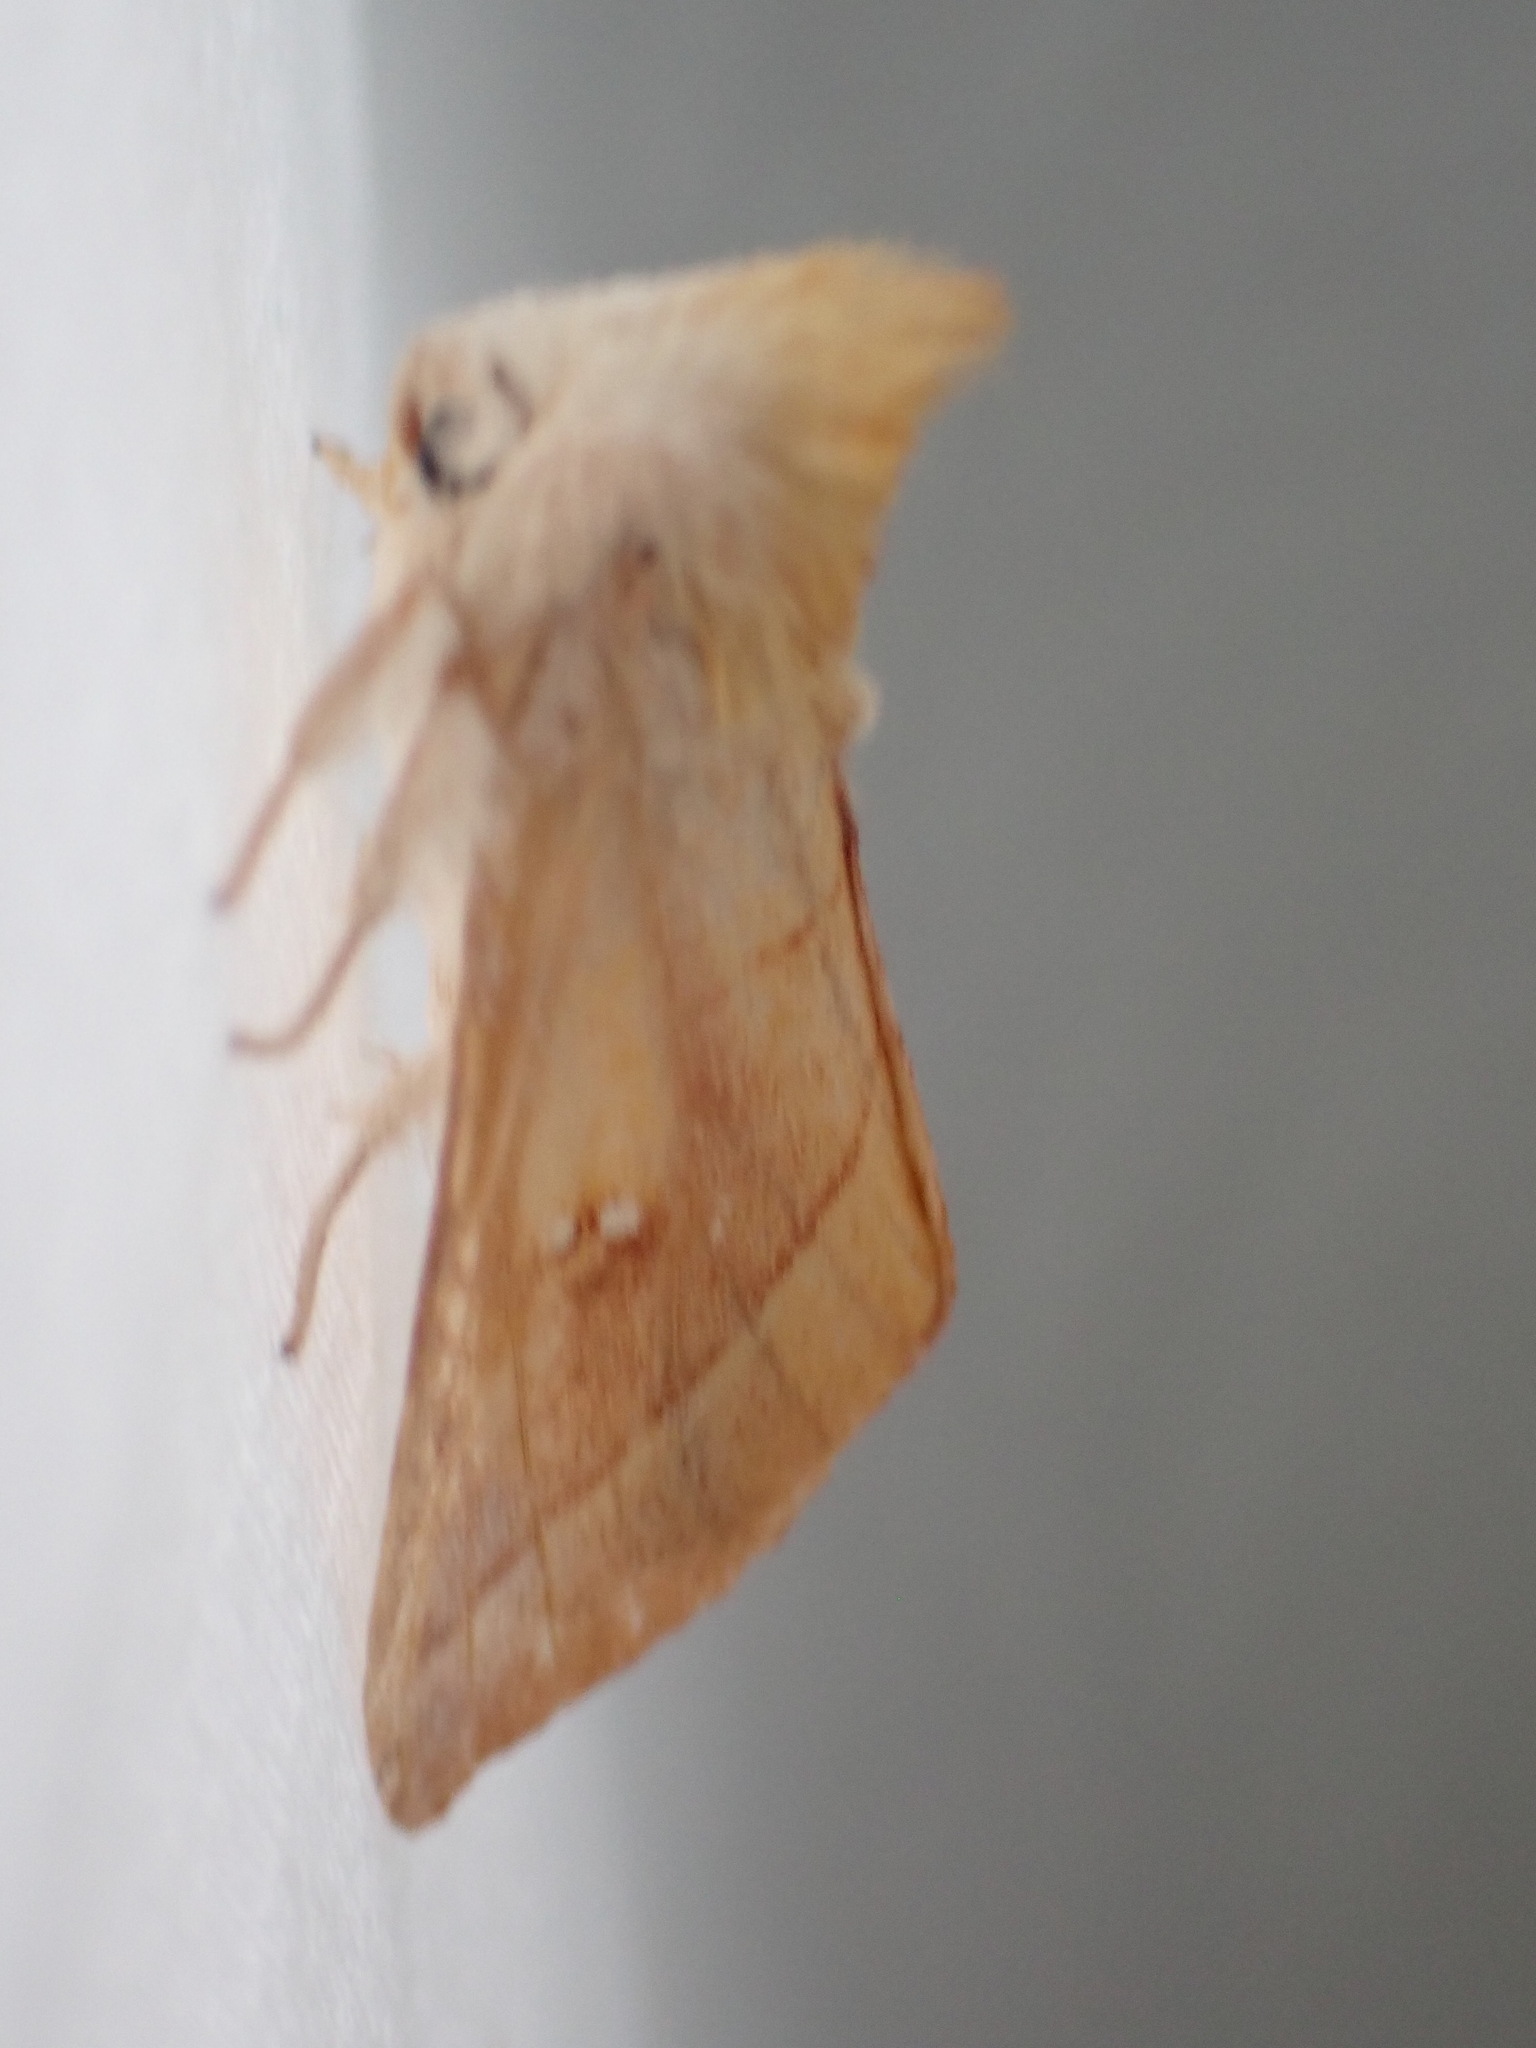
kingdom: Animalia
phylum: Arthropoda
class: Insecta
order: Lepidoptera
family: Notodontidae
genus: Nadata
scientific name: Nadata gibbosa
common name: White-dotted prominent
